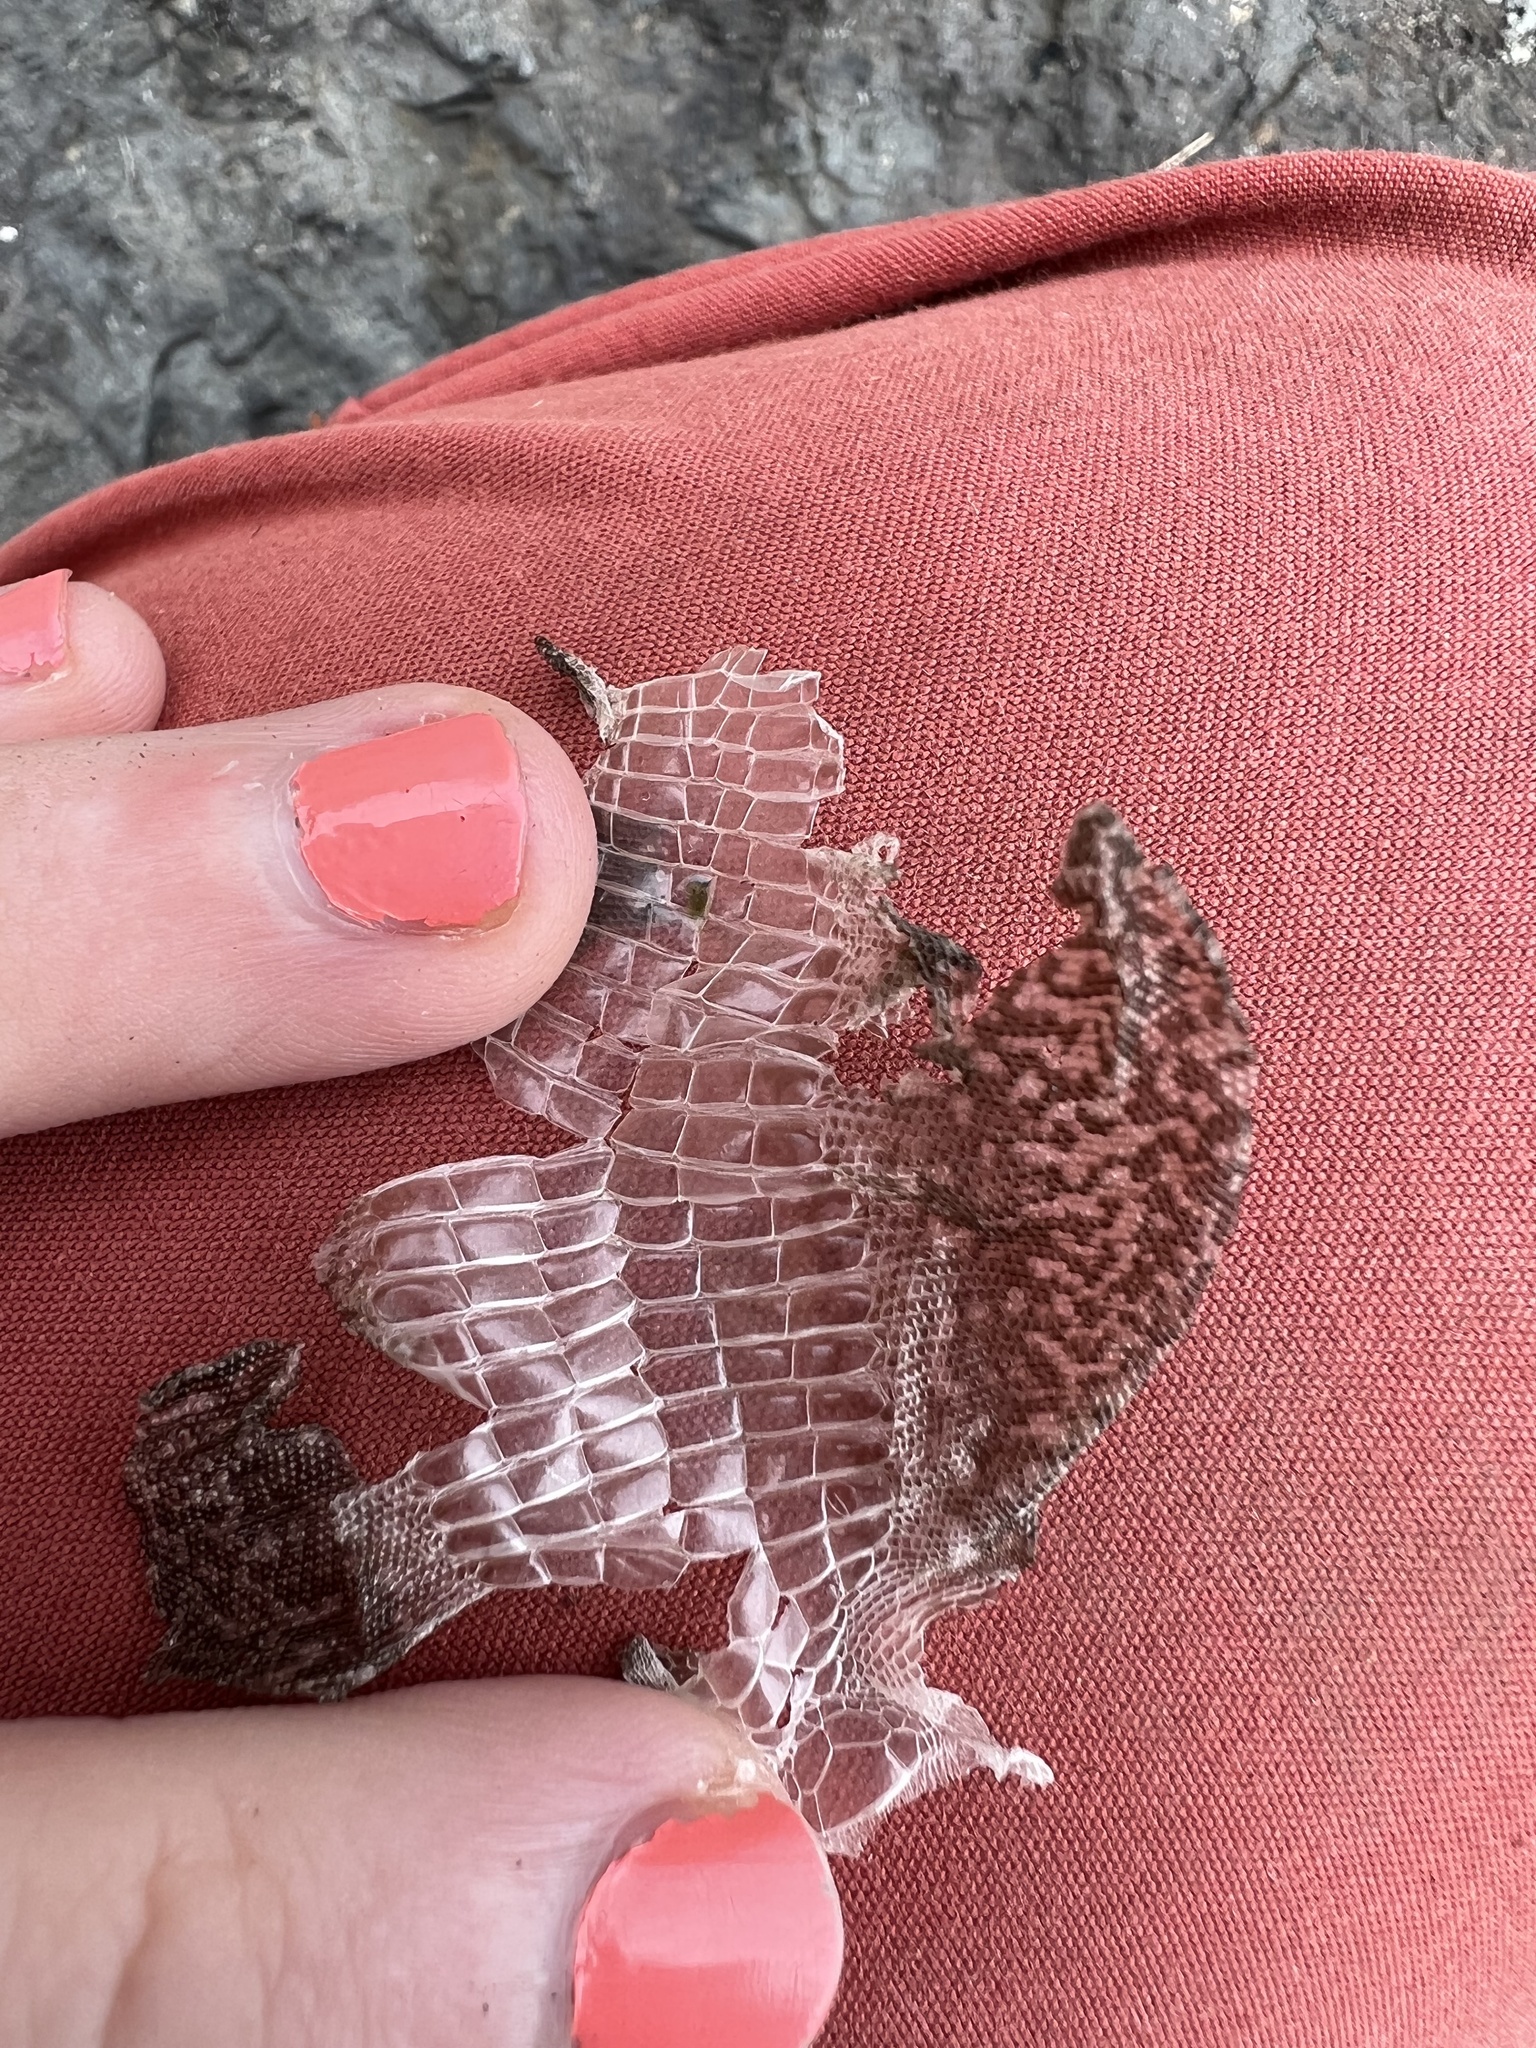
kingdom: Animalia
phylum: Chordata
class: Squamata
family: Lacertidae
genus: Podarcis
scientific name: Podarcis muralis
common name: Common wall lizard
